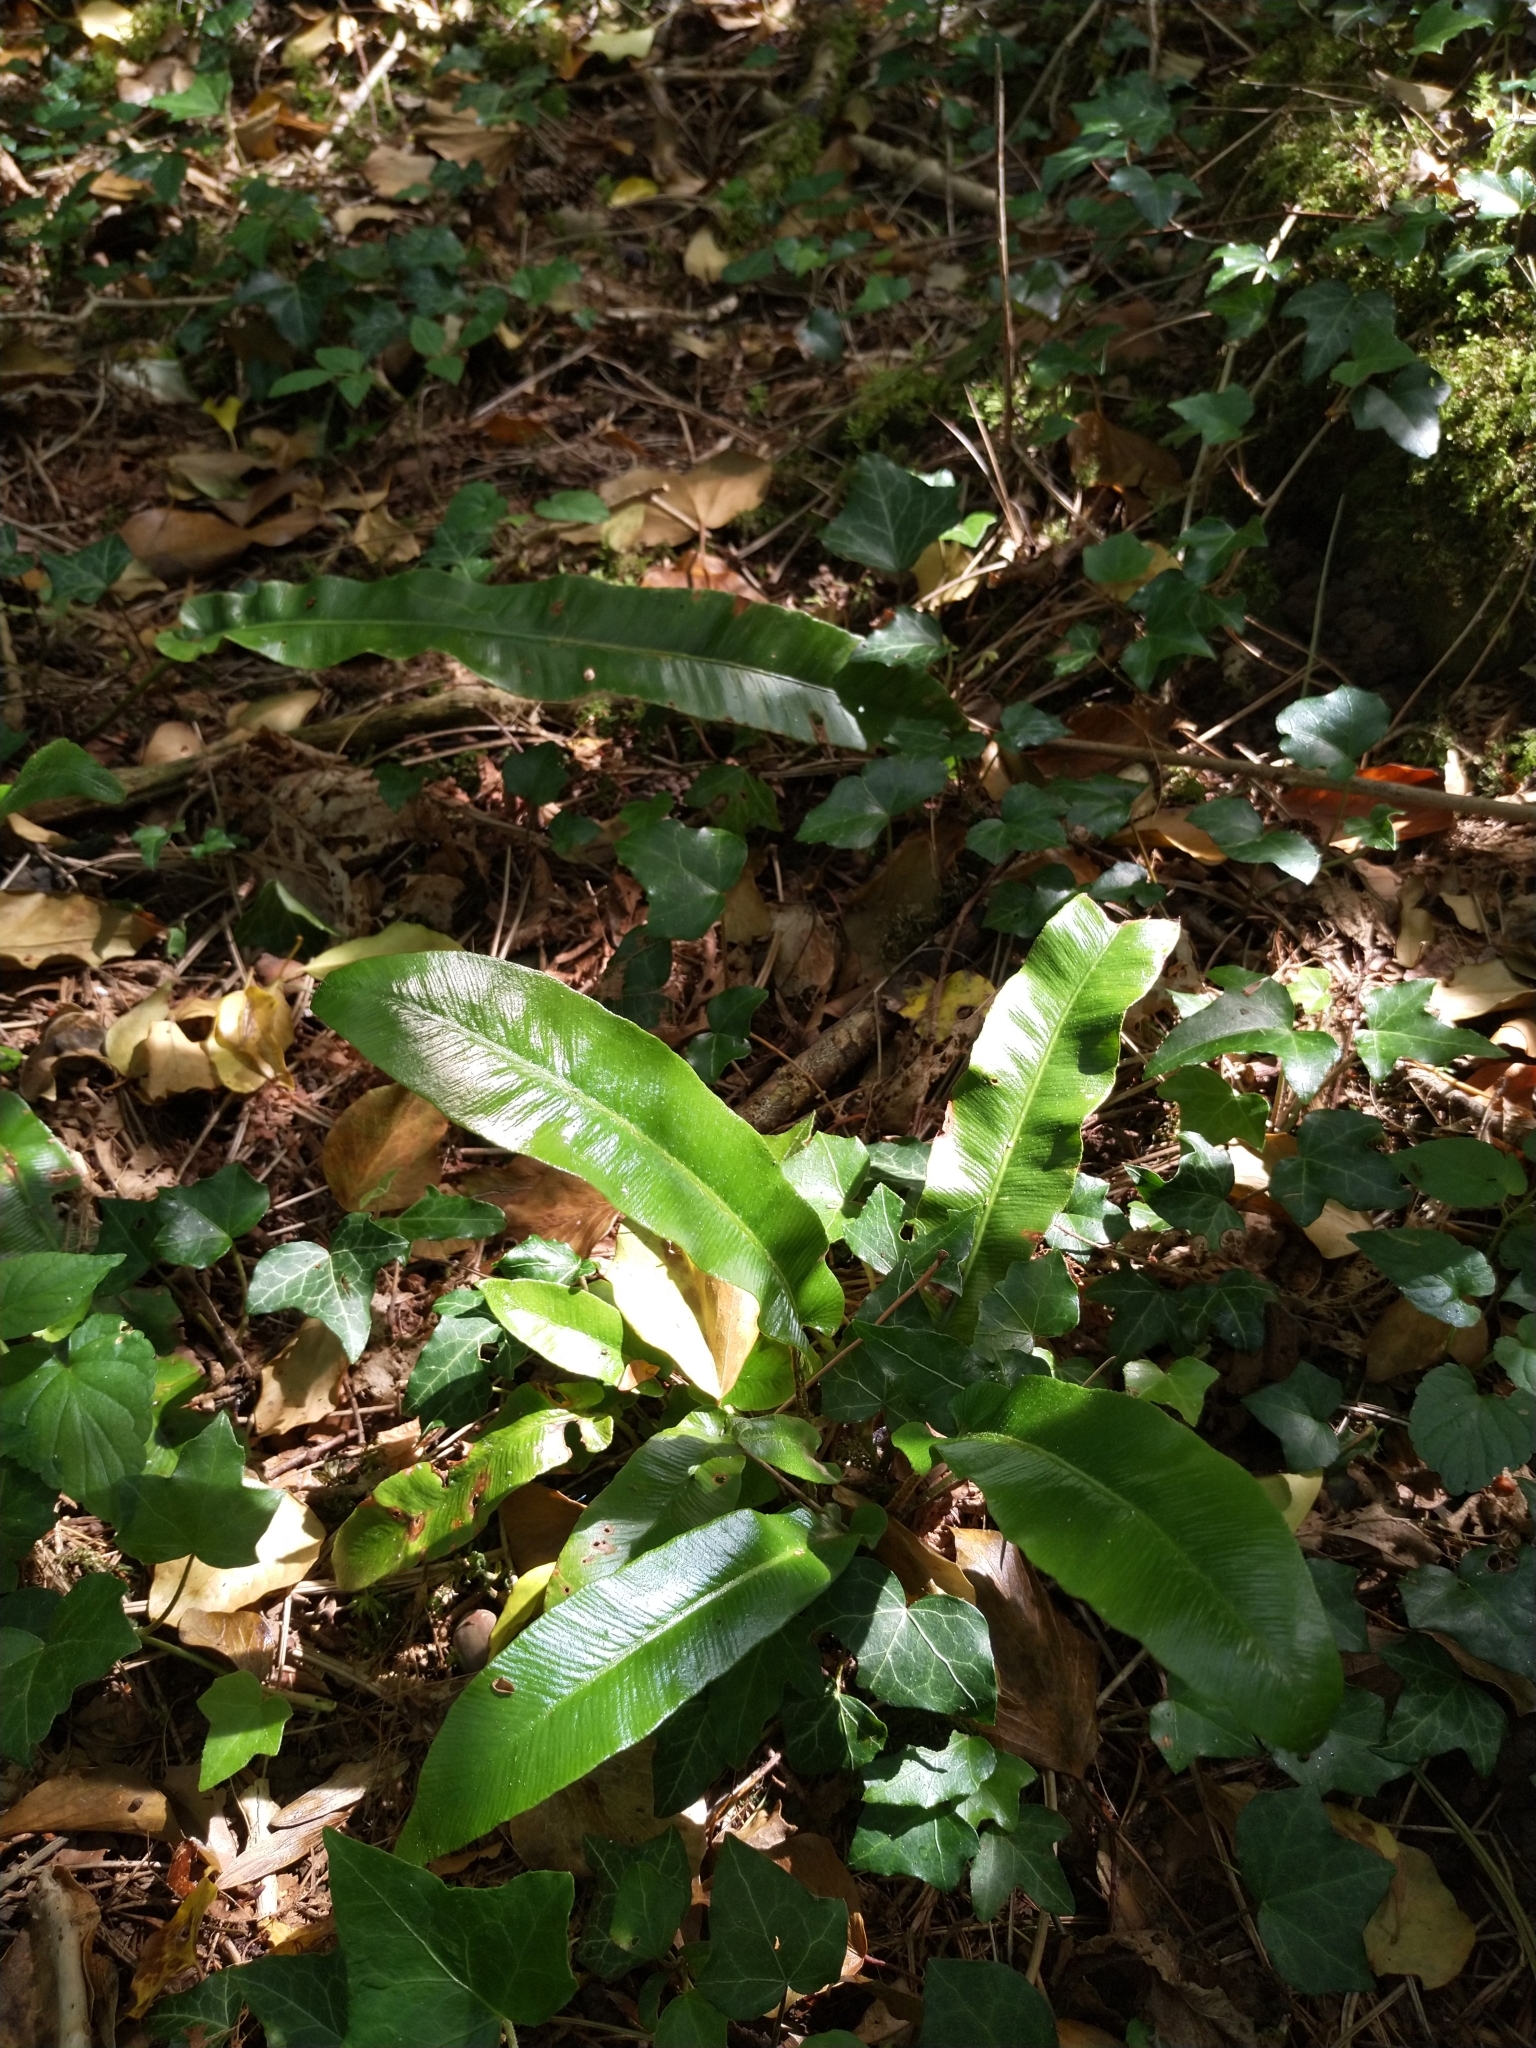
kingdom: Plantae
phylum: Tracheophyta
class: Polypodiopsida
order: Polypodiales
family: Aspleniaceae
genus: Asplenium
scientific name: Asplenium scolopendrium
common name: Hart's-tongue fern
